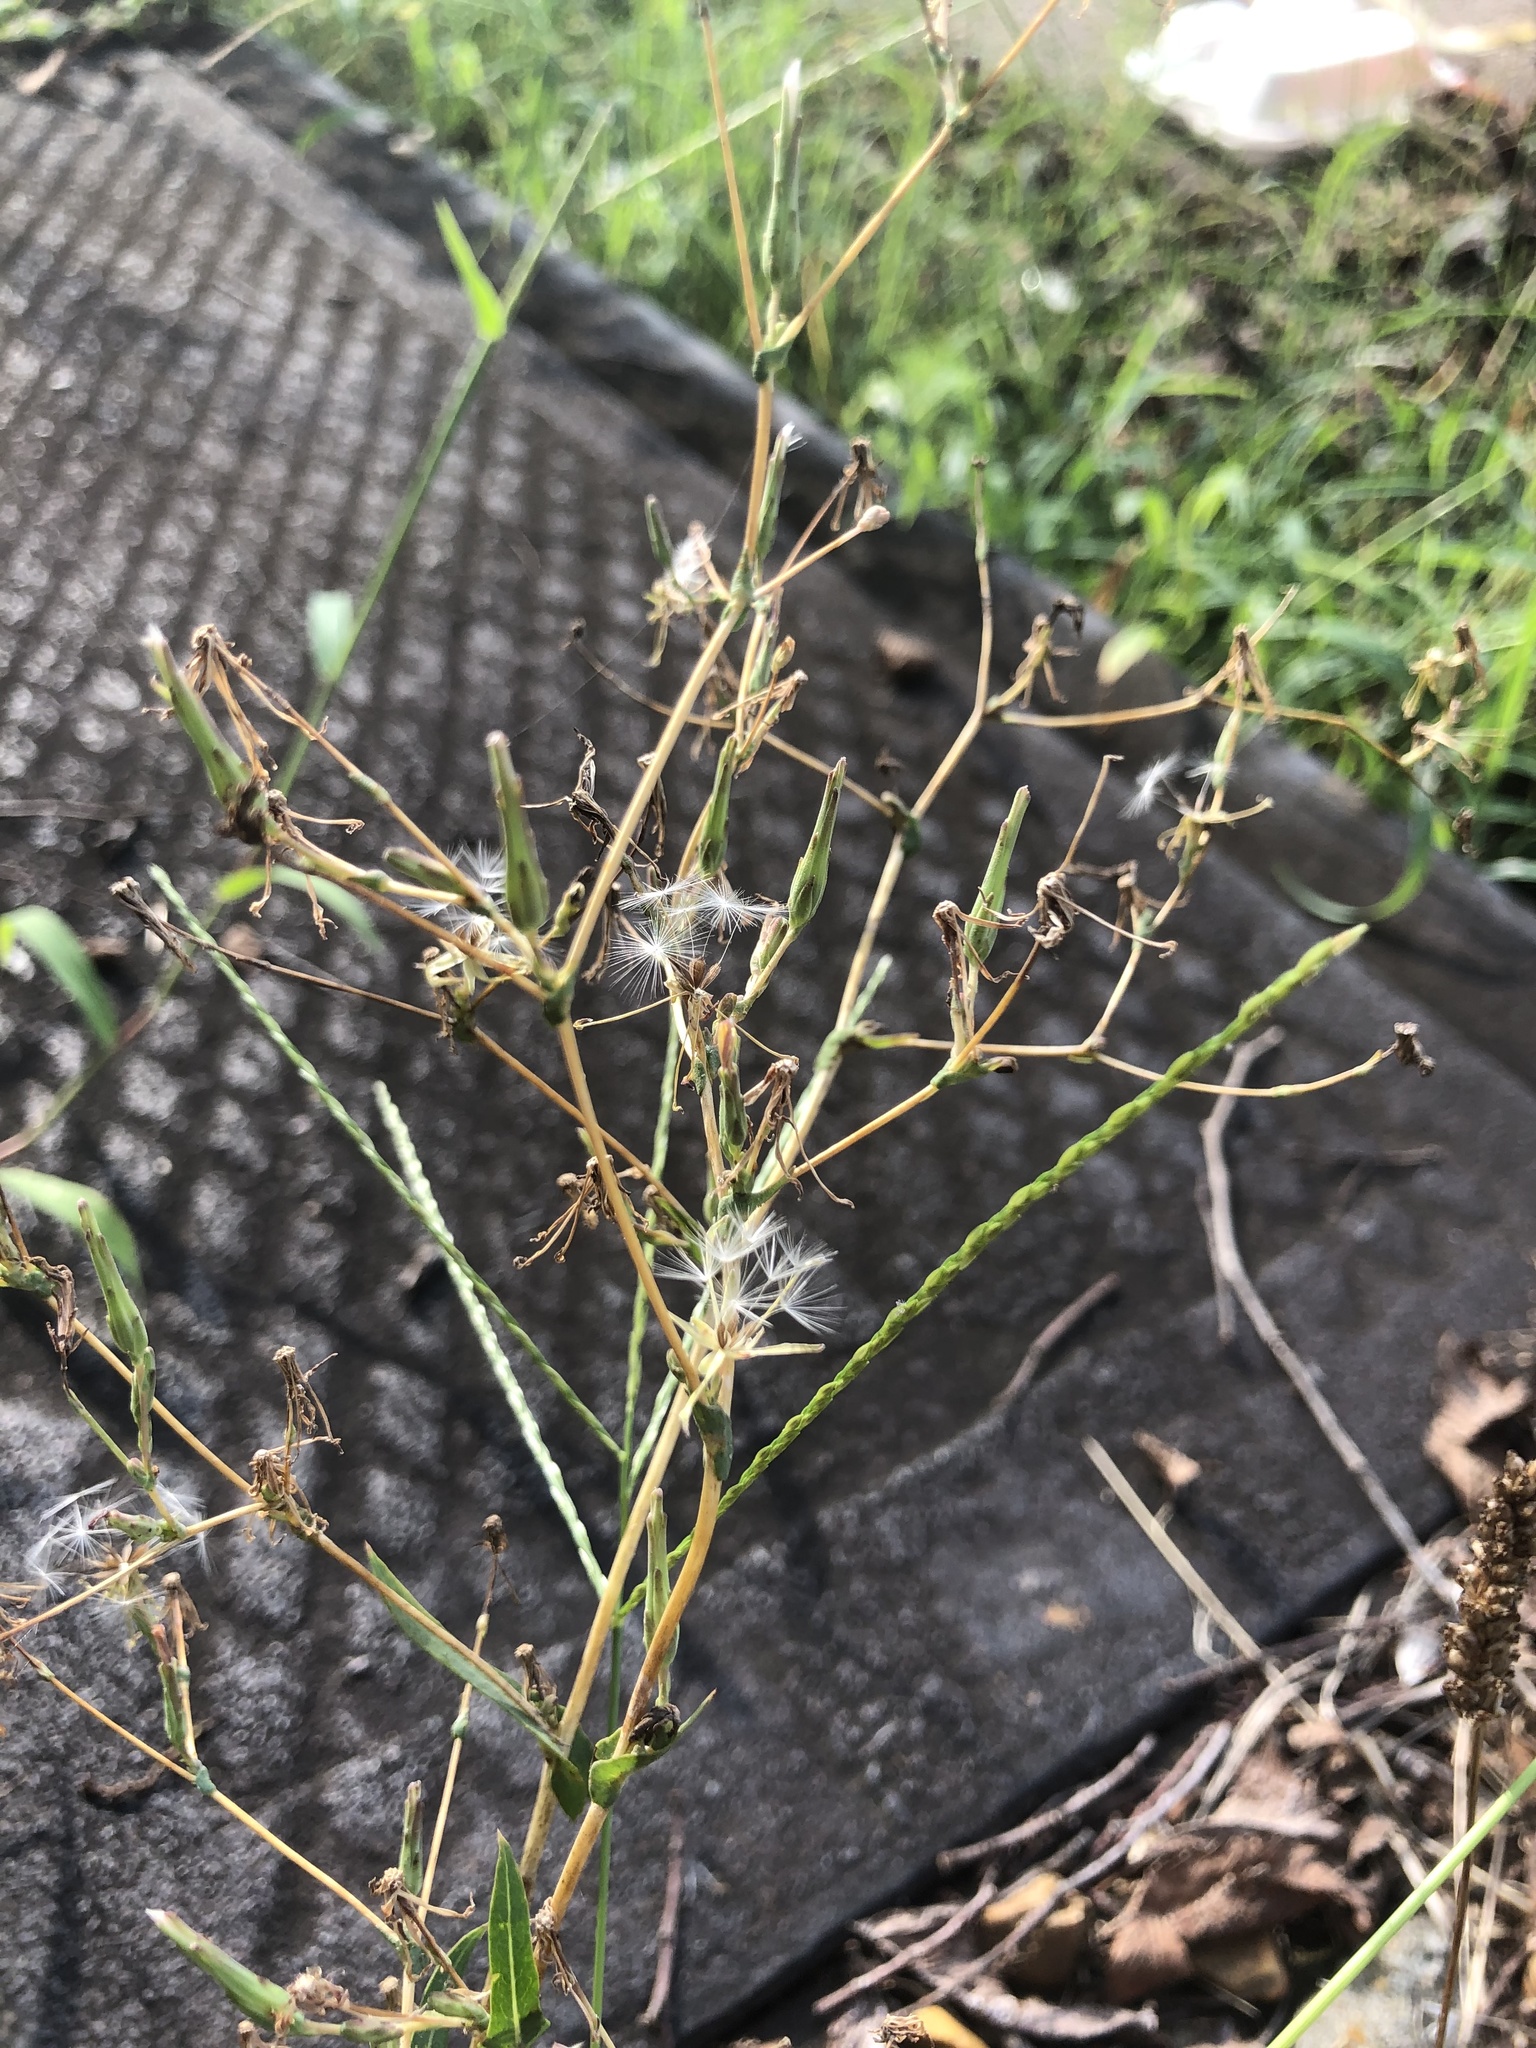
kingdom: Plantae
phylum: Tracheophyta
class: Magnoliopsida
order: Asterales
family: Asteraceae
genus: Lactuca
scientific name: Lactuca serriola
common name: Prickly lettuce
